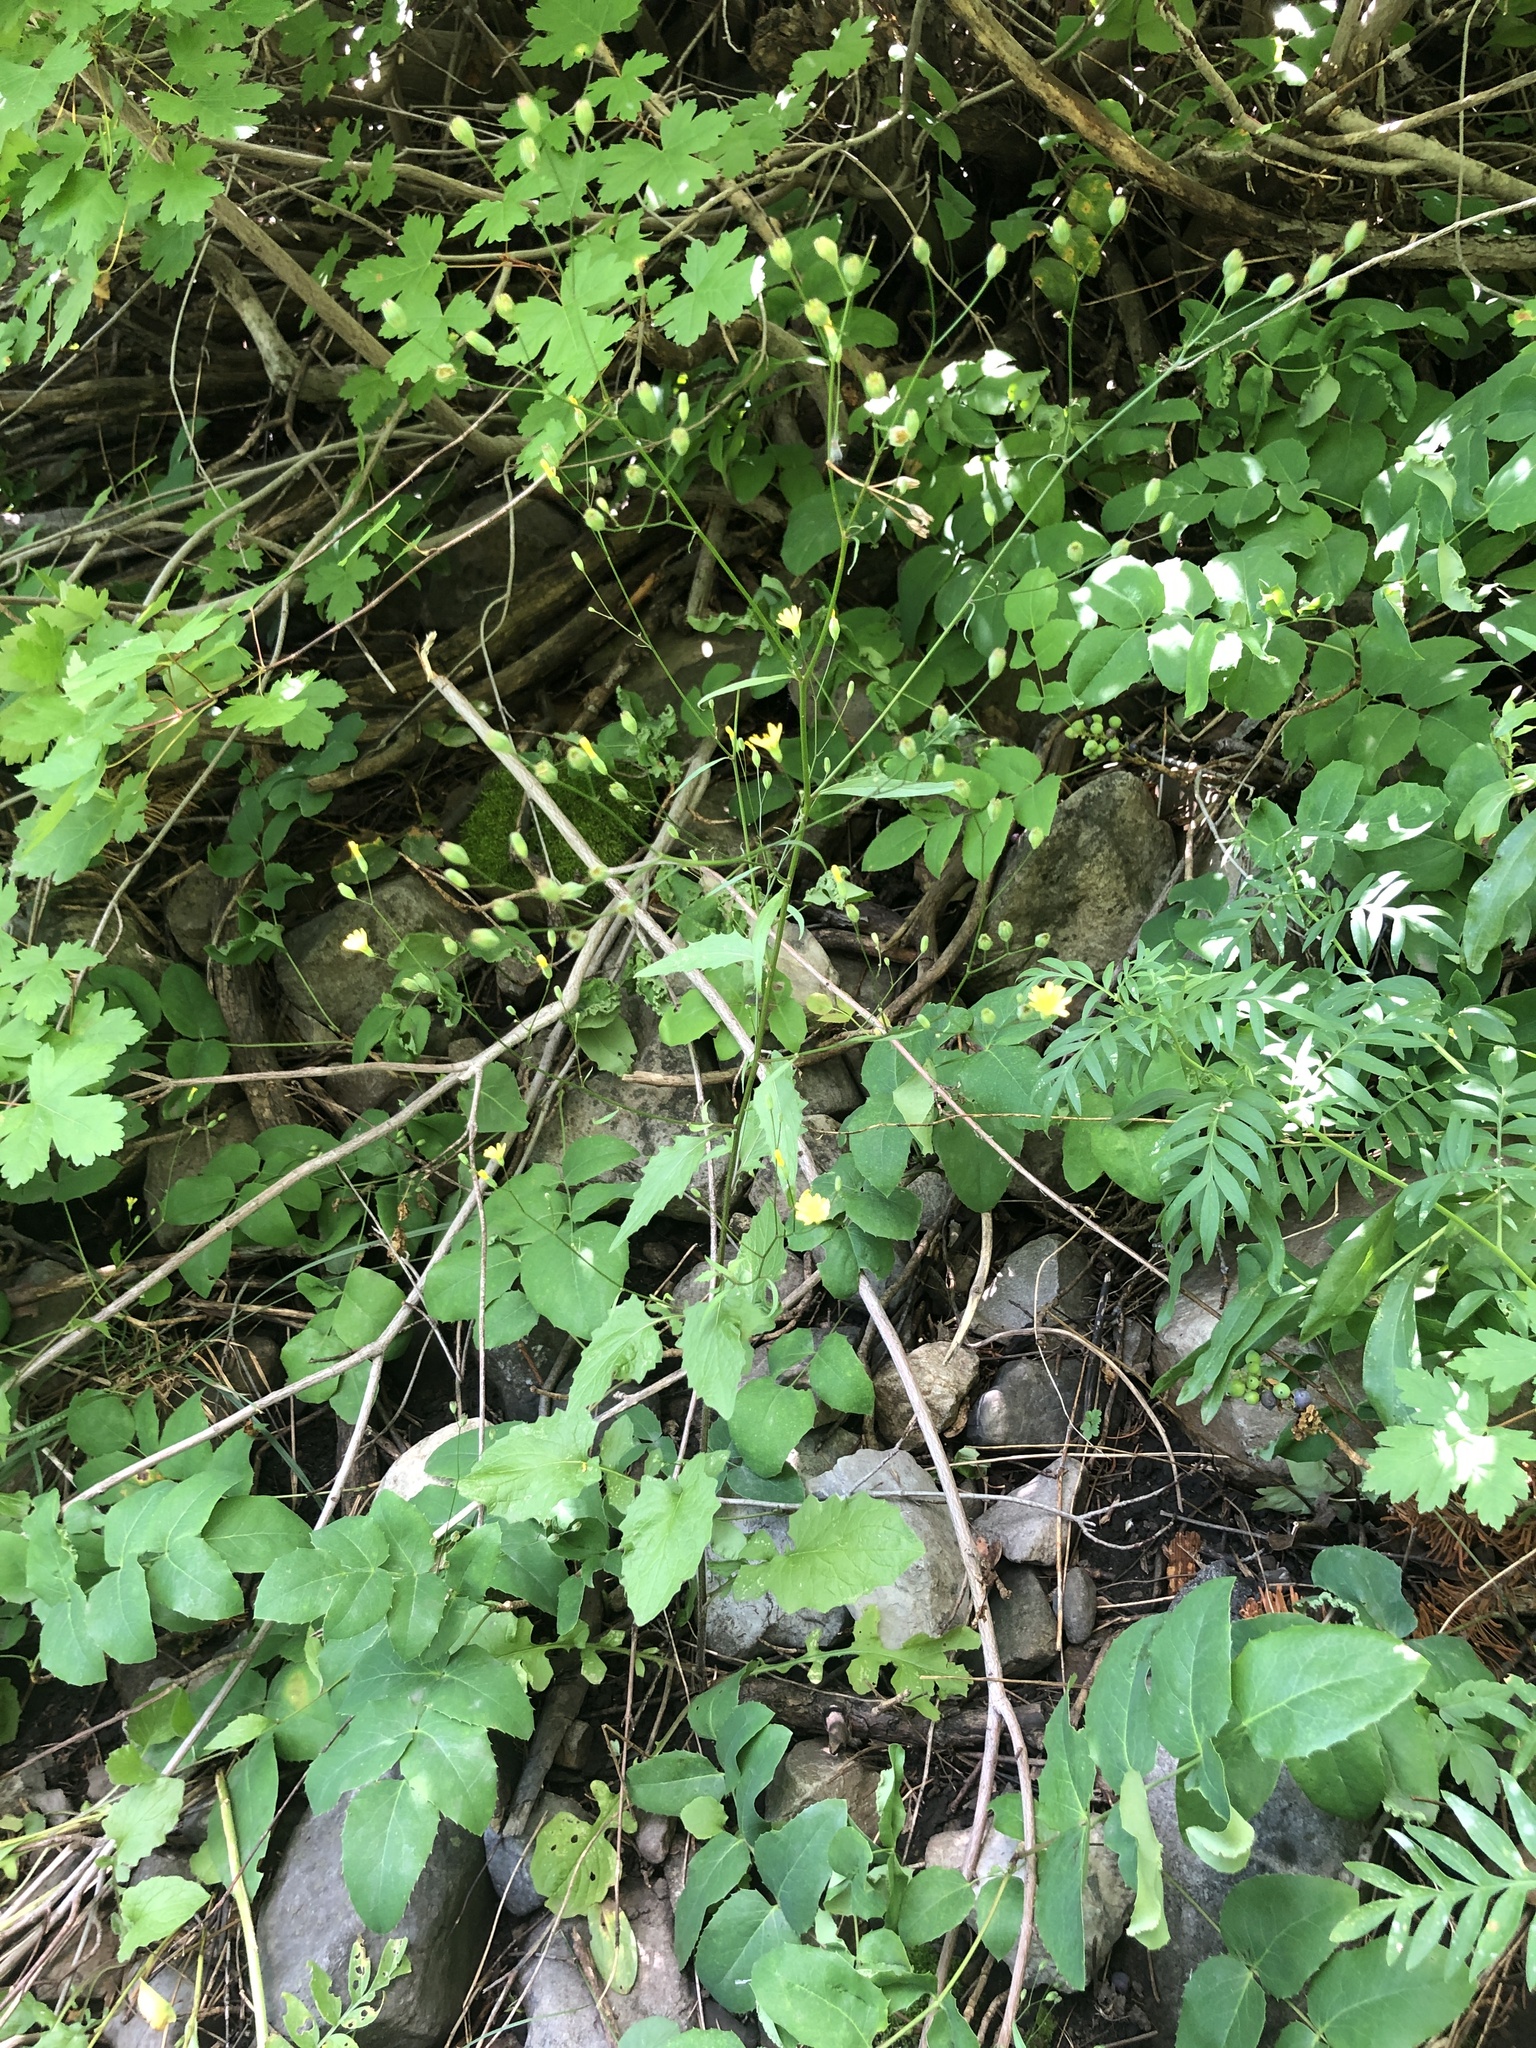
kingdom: Plantae
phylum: Tracheophyta
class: Magnoliopsida
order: Asterales
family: Asteraceae
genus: Lapsana
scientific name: Lapsana communis
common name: Nipplewort
